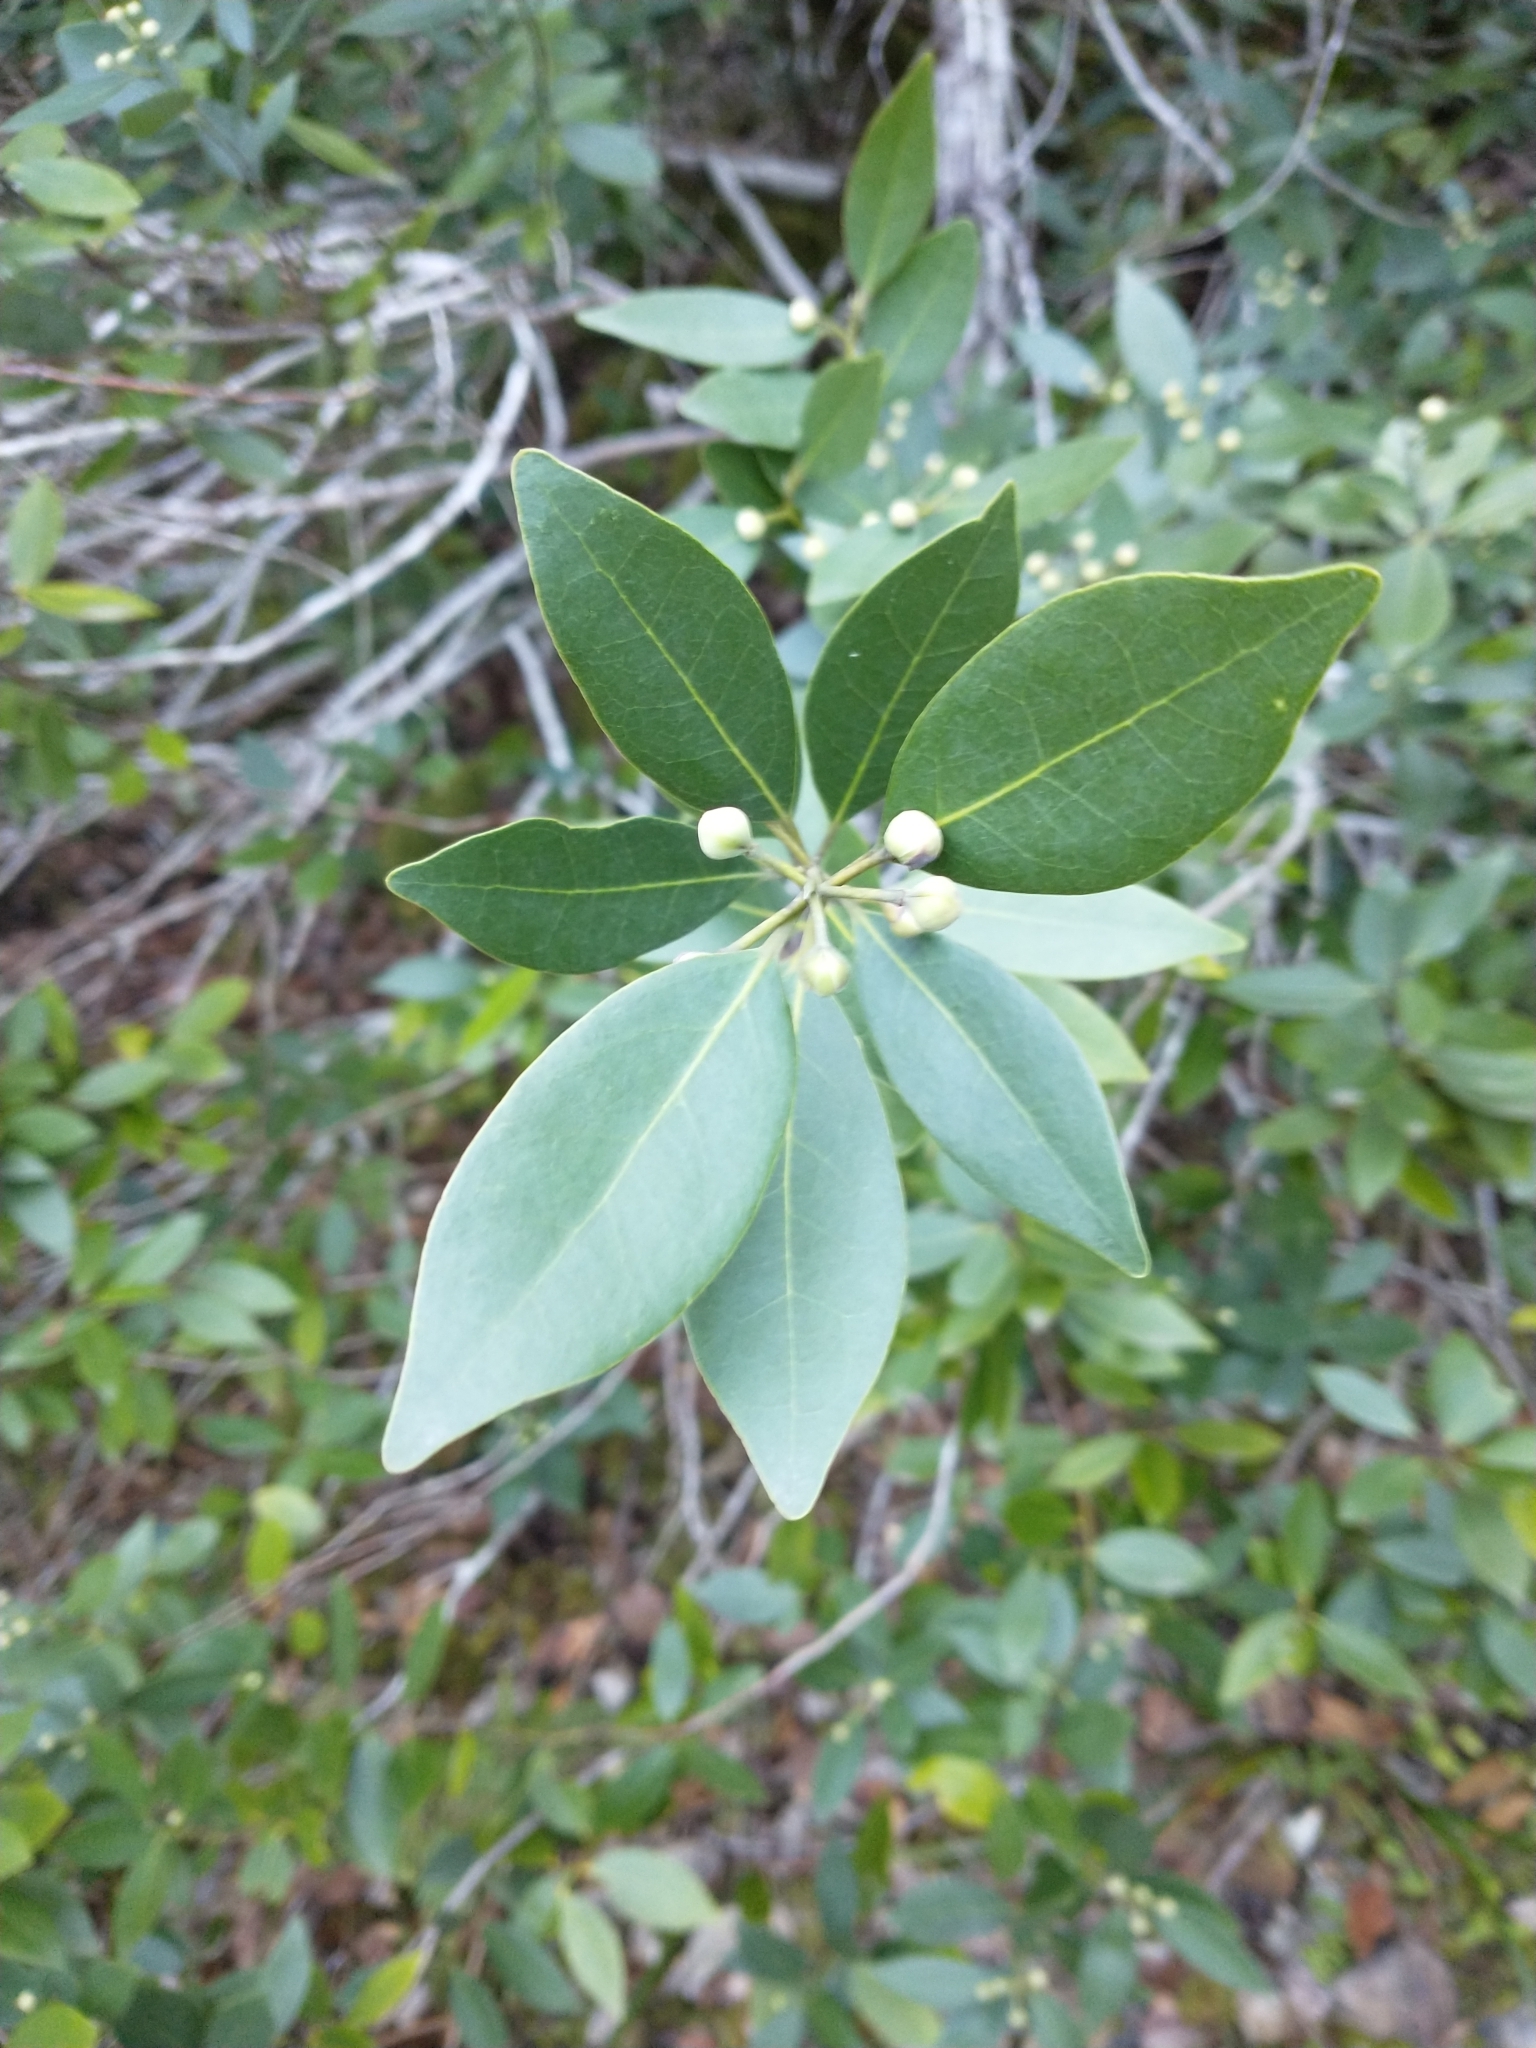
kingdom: Plantae
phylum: Tracheophyta
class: Magnoliopsida
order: Laurales
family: Lauraceae
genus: Umbellularia
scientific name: Umbellularia californica
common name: California bay
